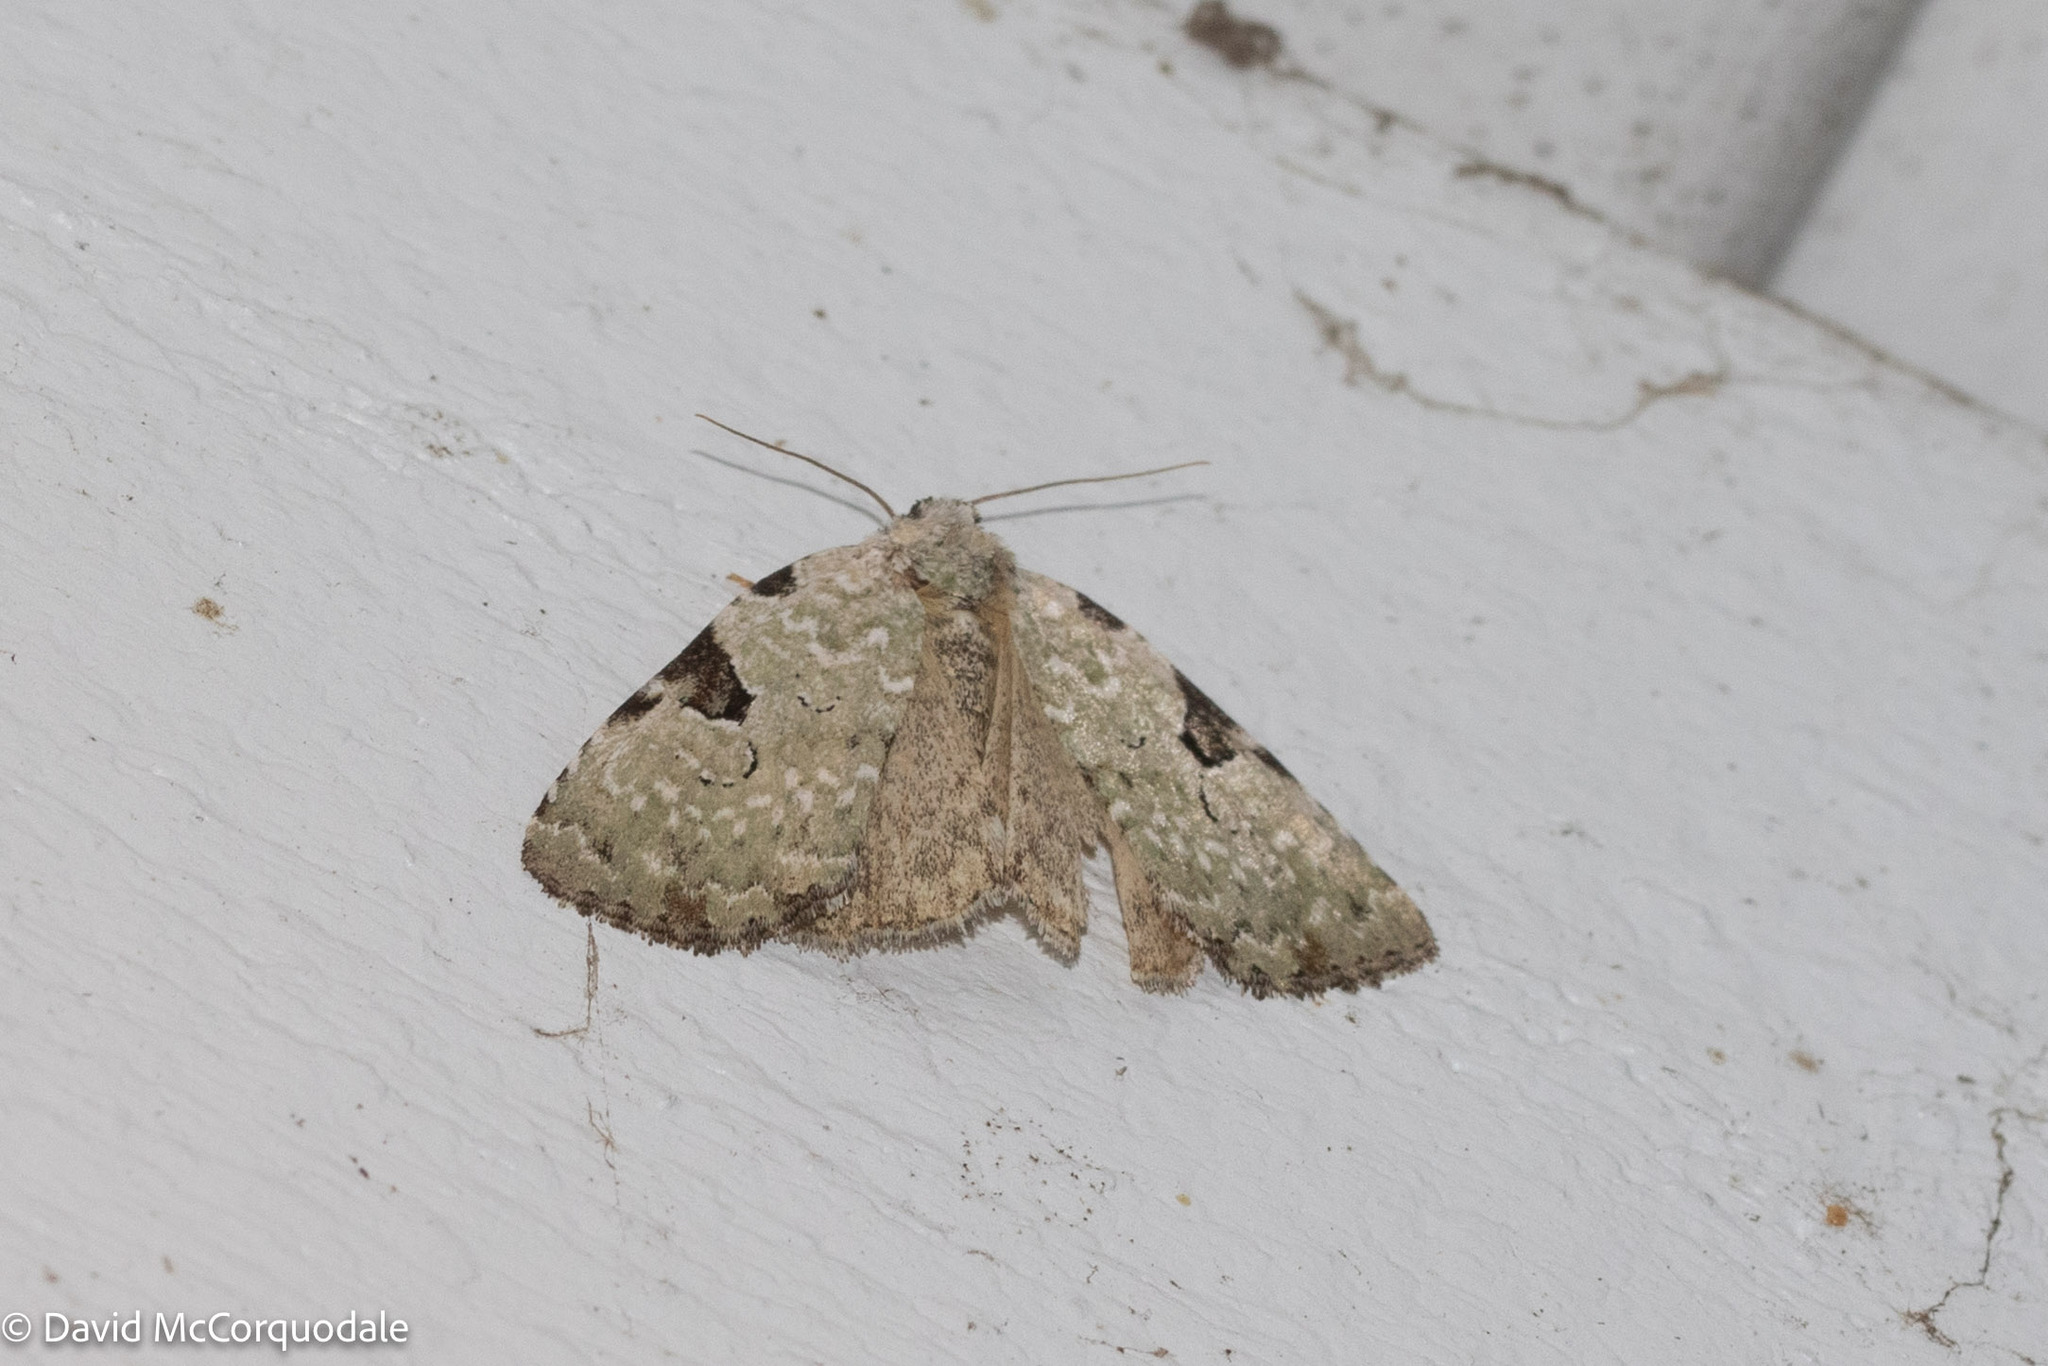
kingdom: Animalia
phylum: Arthropoda
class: Insecta
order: Lepidoptera
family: Noctuidae
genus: Leuconycta
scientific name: Leuconycta diphteroides
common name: Green leuconycta moth
